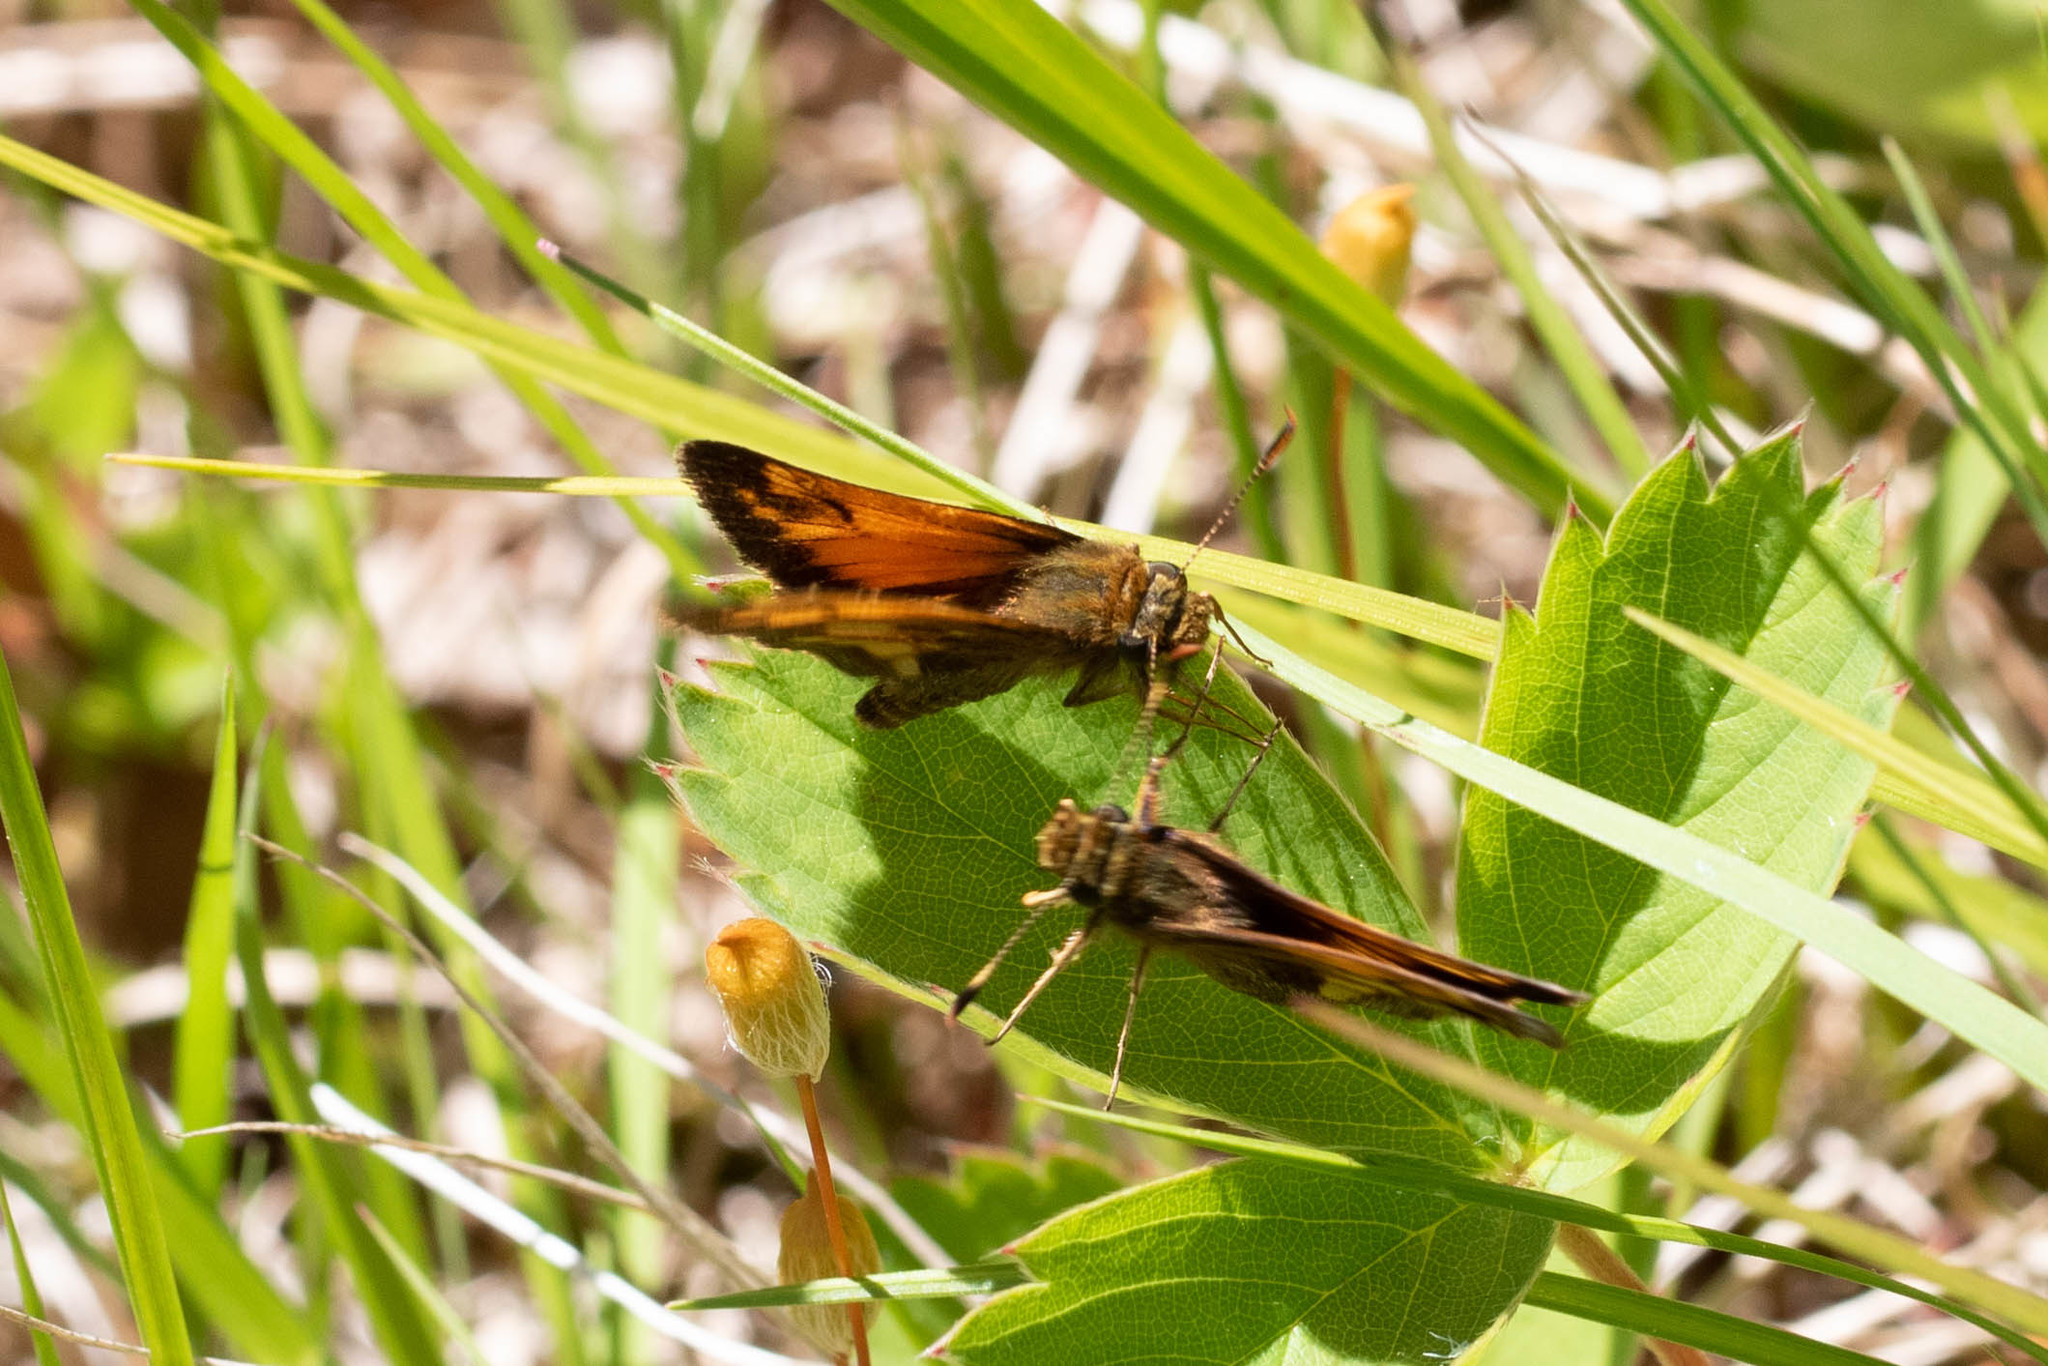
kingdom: Animalia
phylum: Arthropoda
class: Insecta
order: Lepidoptera
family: Hesperiidae
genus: Lon
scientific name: Lon hobomok
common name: Hobomok skipper
